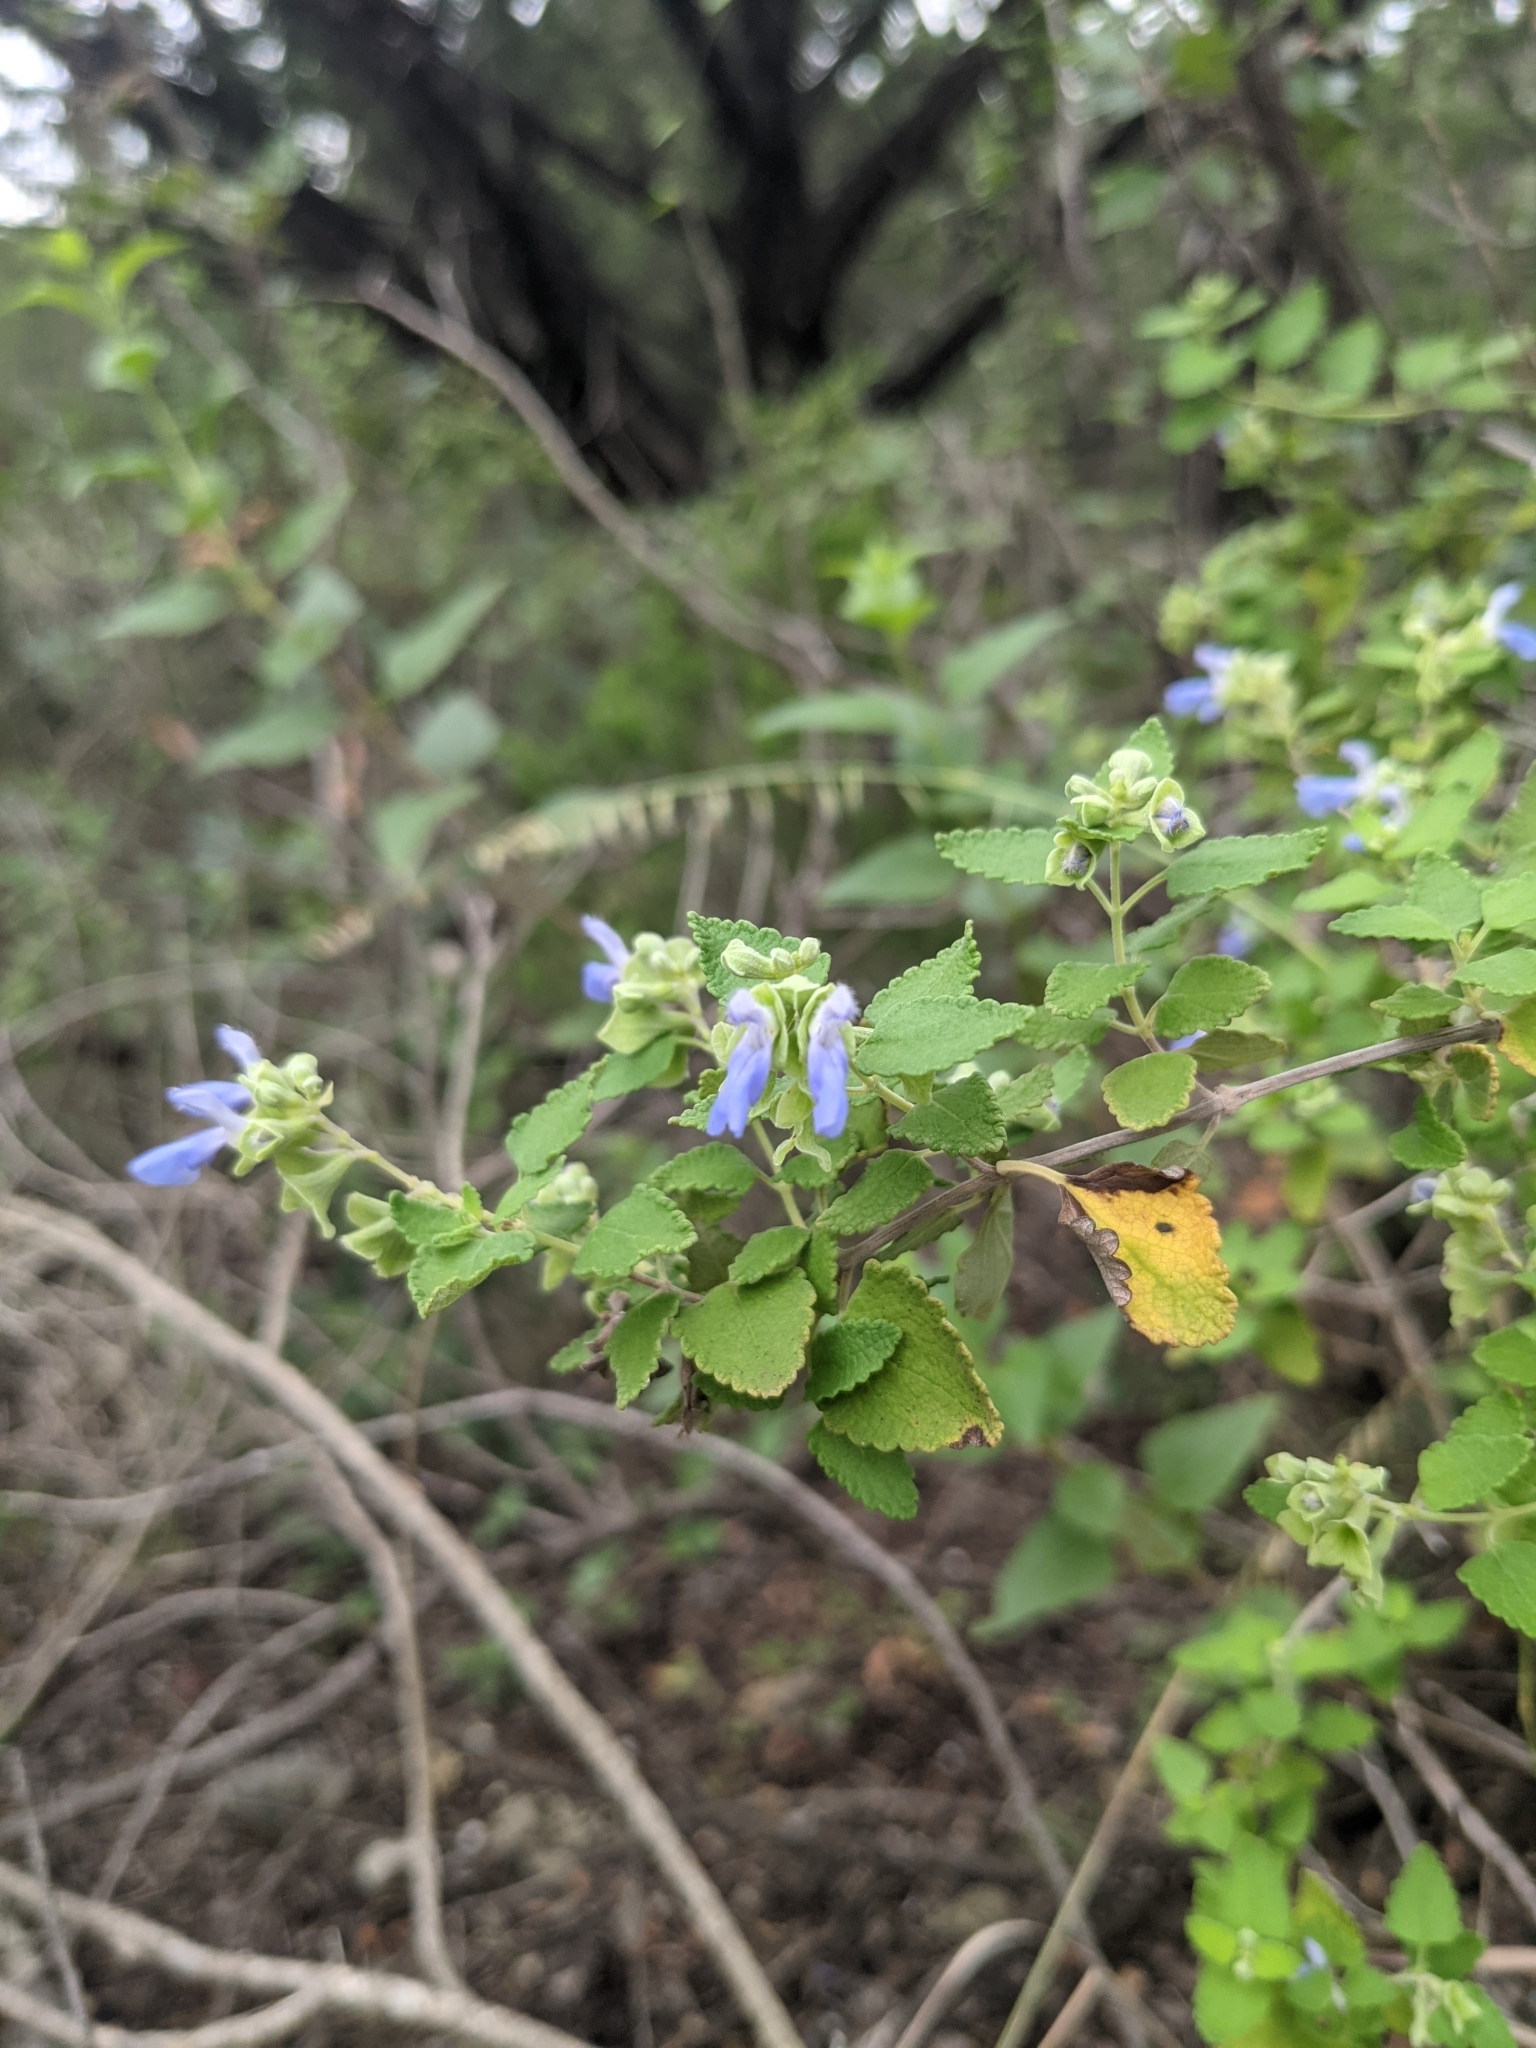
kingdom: Plantae
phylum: Tracheophyta
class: Magnoliopsida
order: Lamiales
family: Lamiaceae
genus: Salvia
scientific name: Salvia ballotiflora
